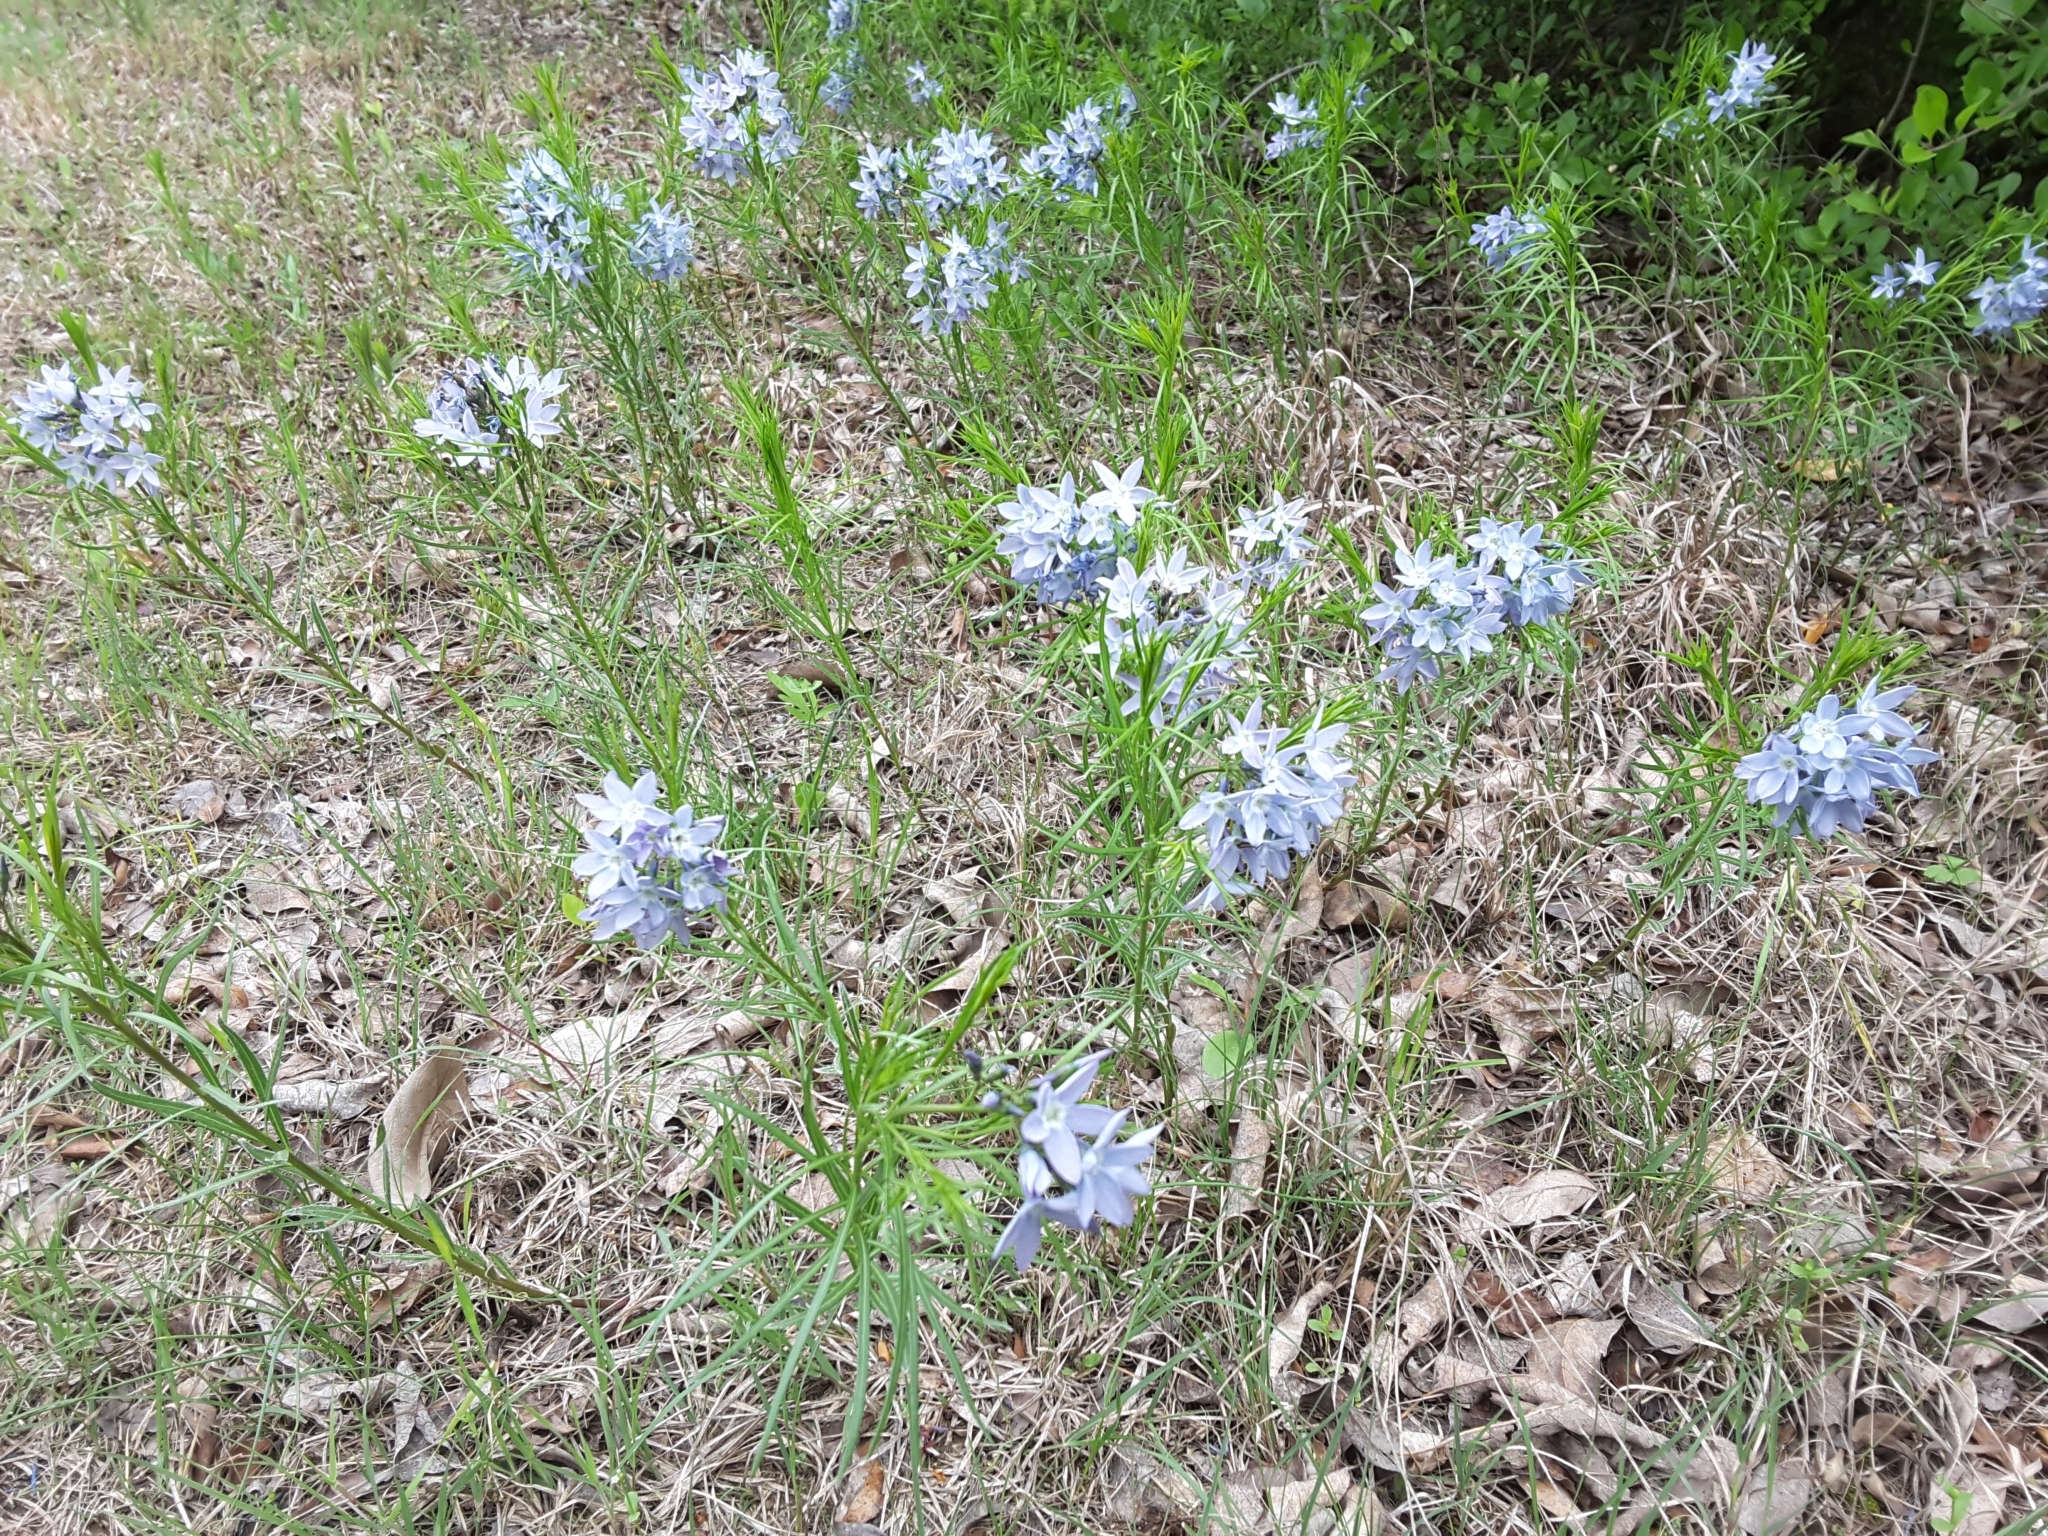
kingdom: Plantae
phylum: Tracheophyta
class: Magnoliopsida
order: Gentianales
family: Apocynaceae
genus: Amsonia
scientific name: Amsonia ciliata
